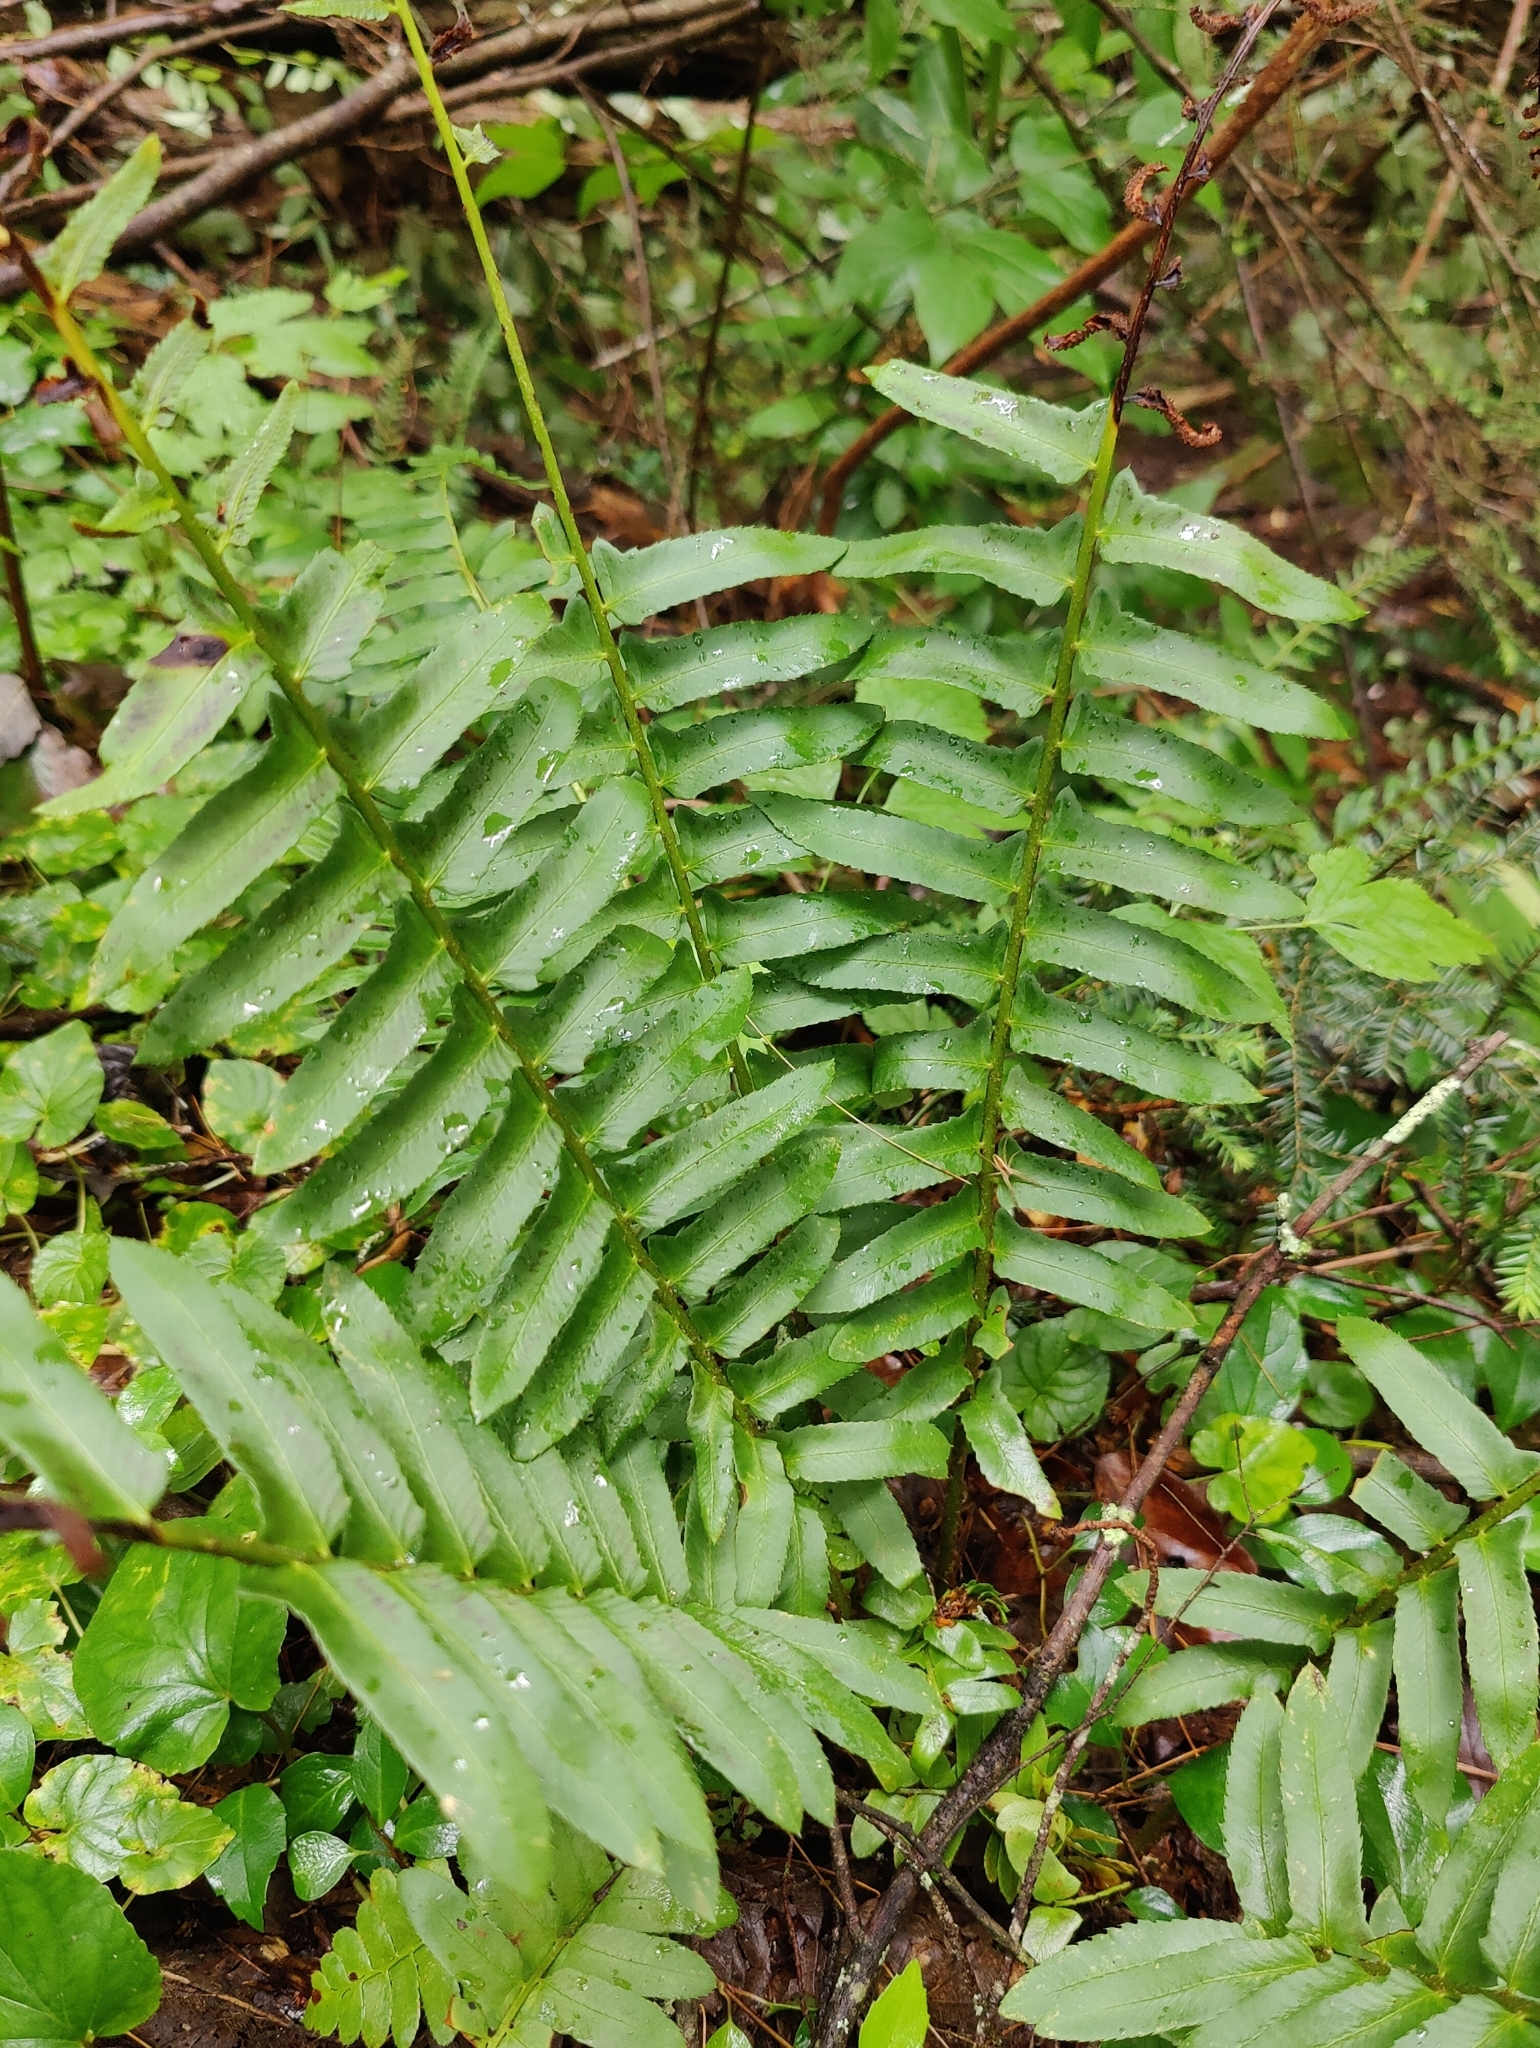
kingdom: Plantae
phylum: Tracheophyta
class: Polypodiopsida
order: Polypodiales
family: Dryopteridaceae
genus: Polystichum
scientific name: Polystichum acrostichoides
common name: Christmas fern
